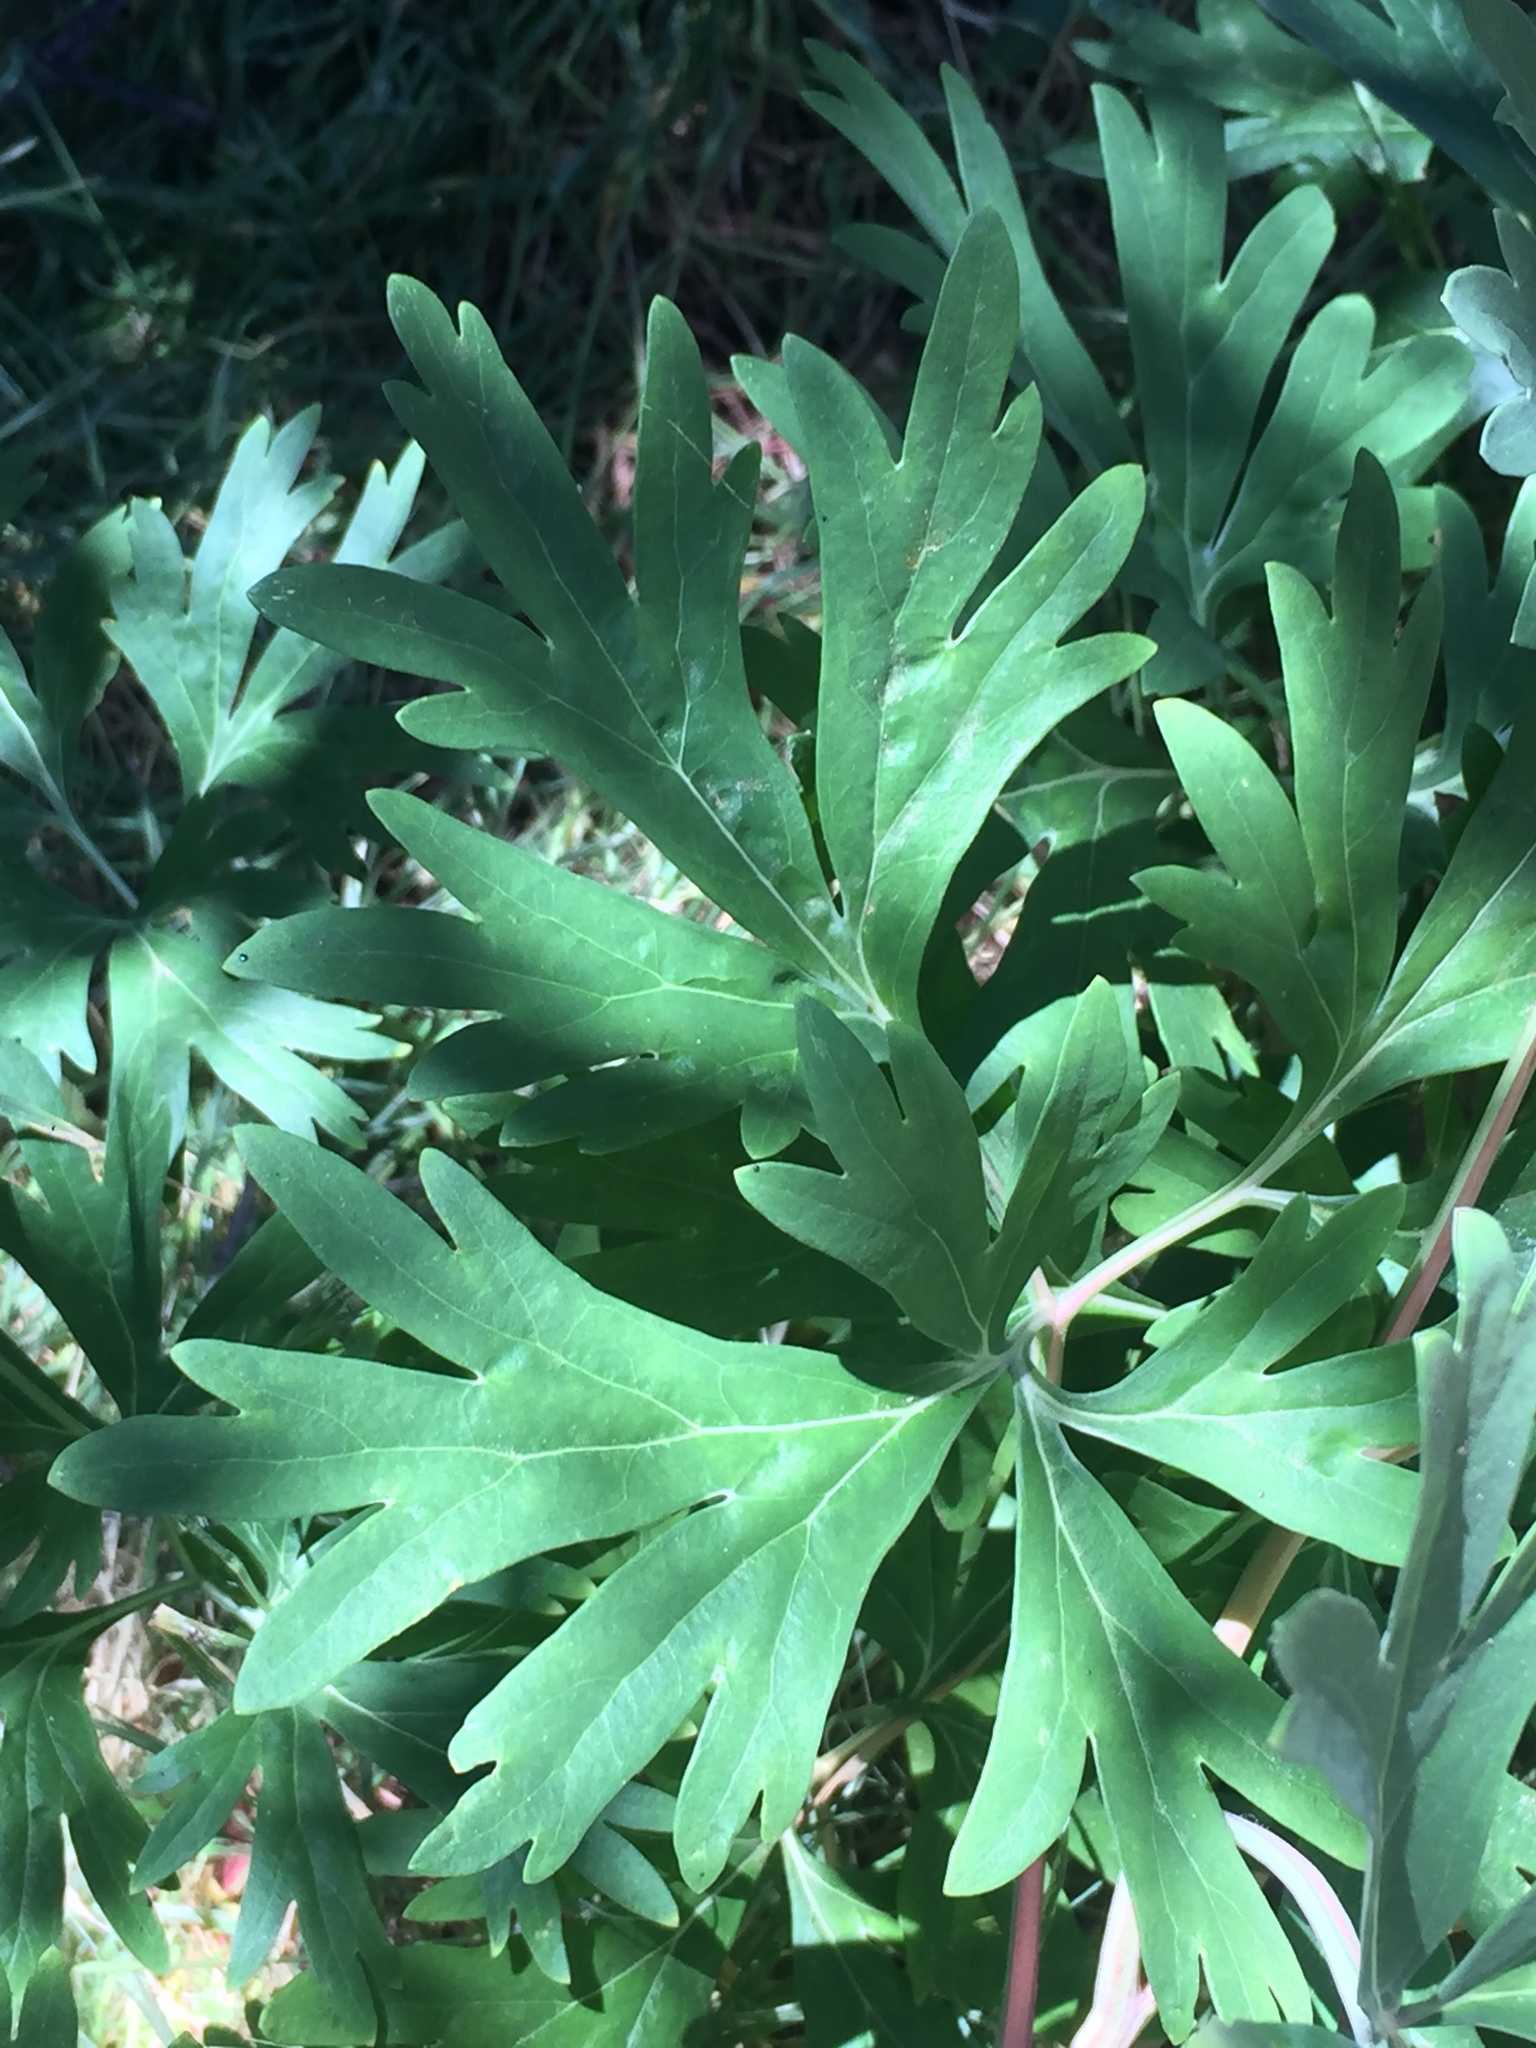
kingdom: Plantae
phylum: Tracheophyta
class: Magnoliopsida
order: Saxifragales
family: Paeoniaceae
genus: Paeonia
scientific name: Paeonia californica
